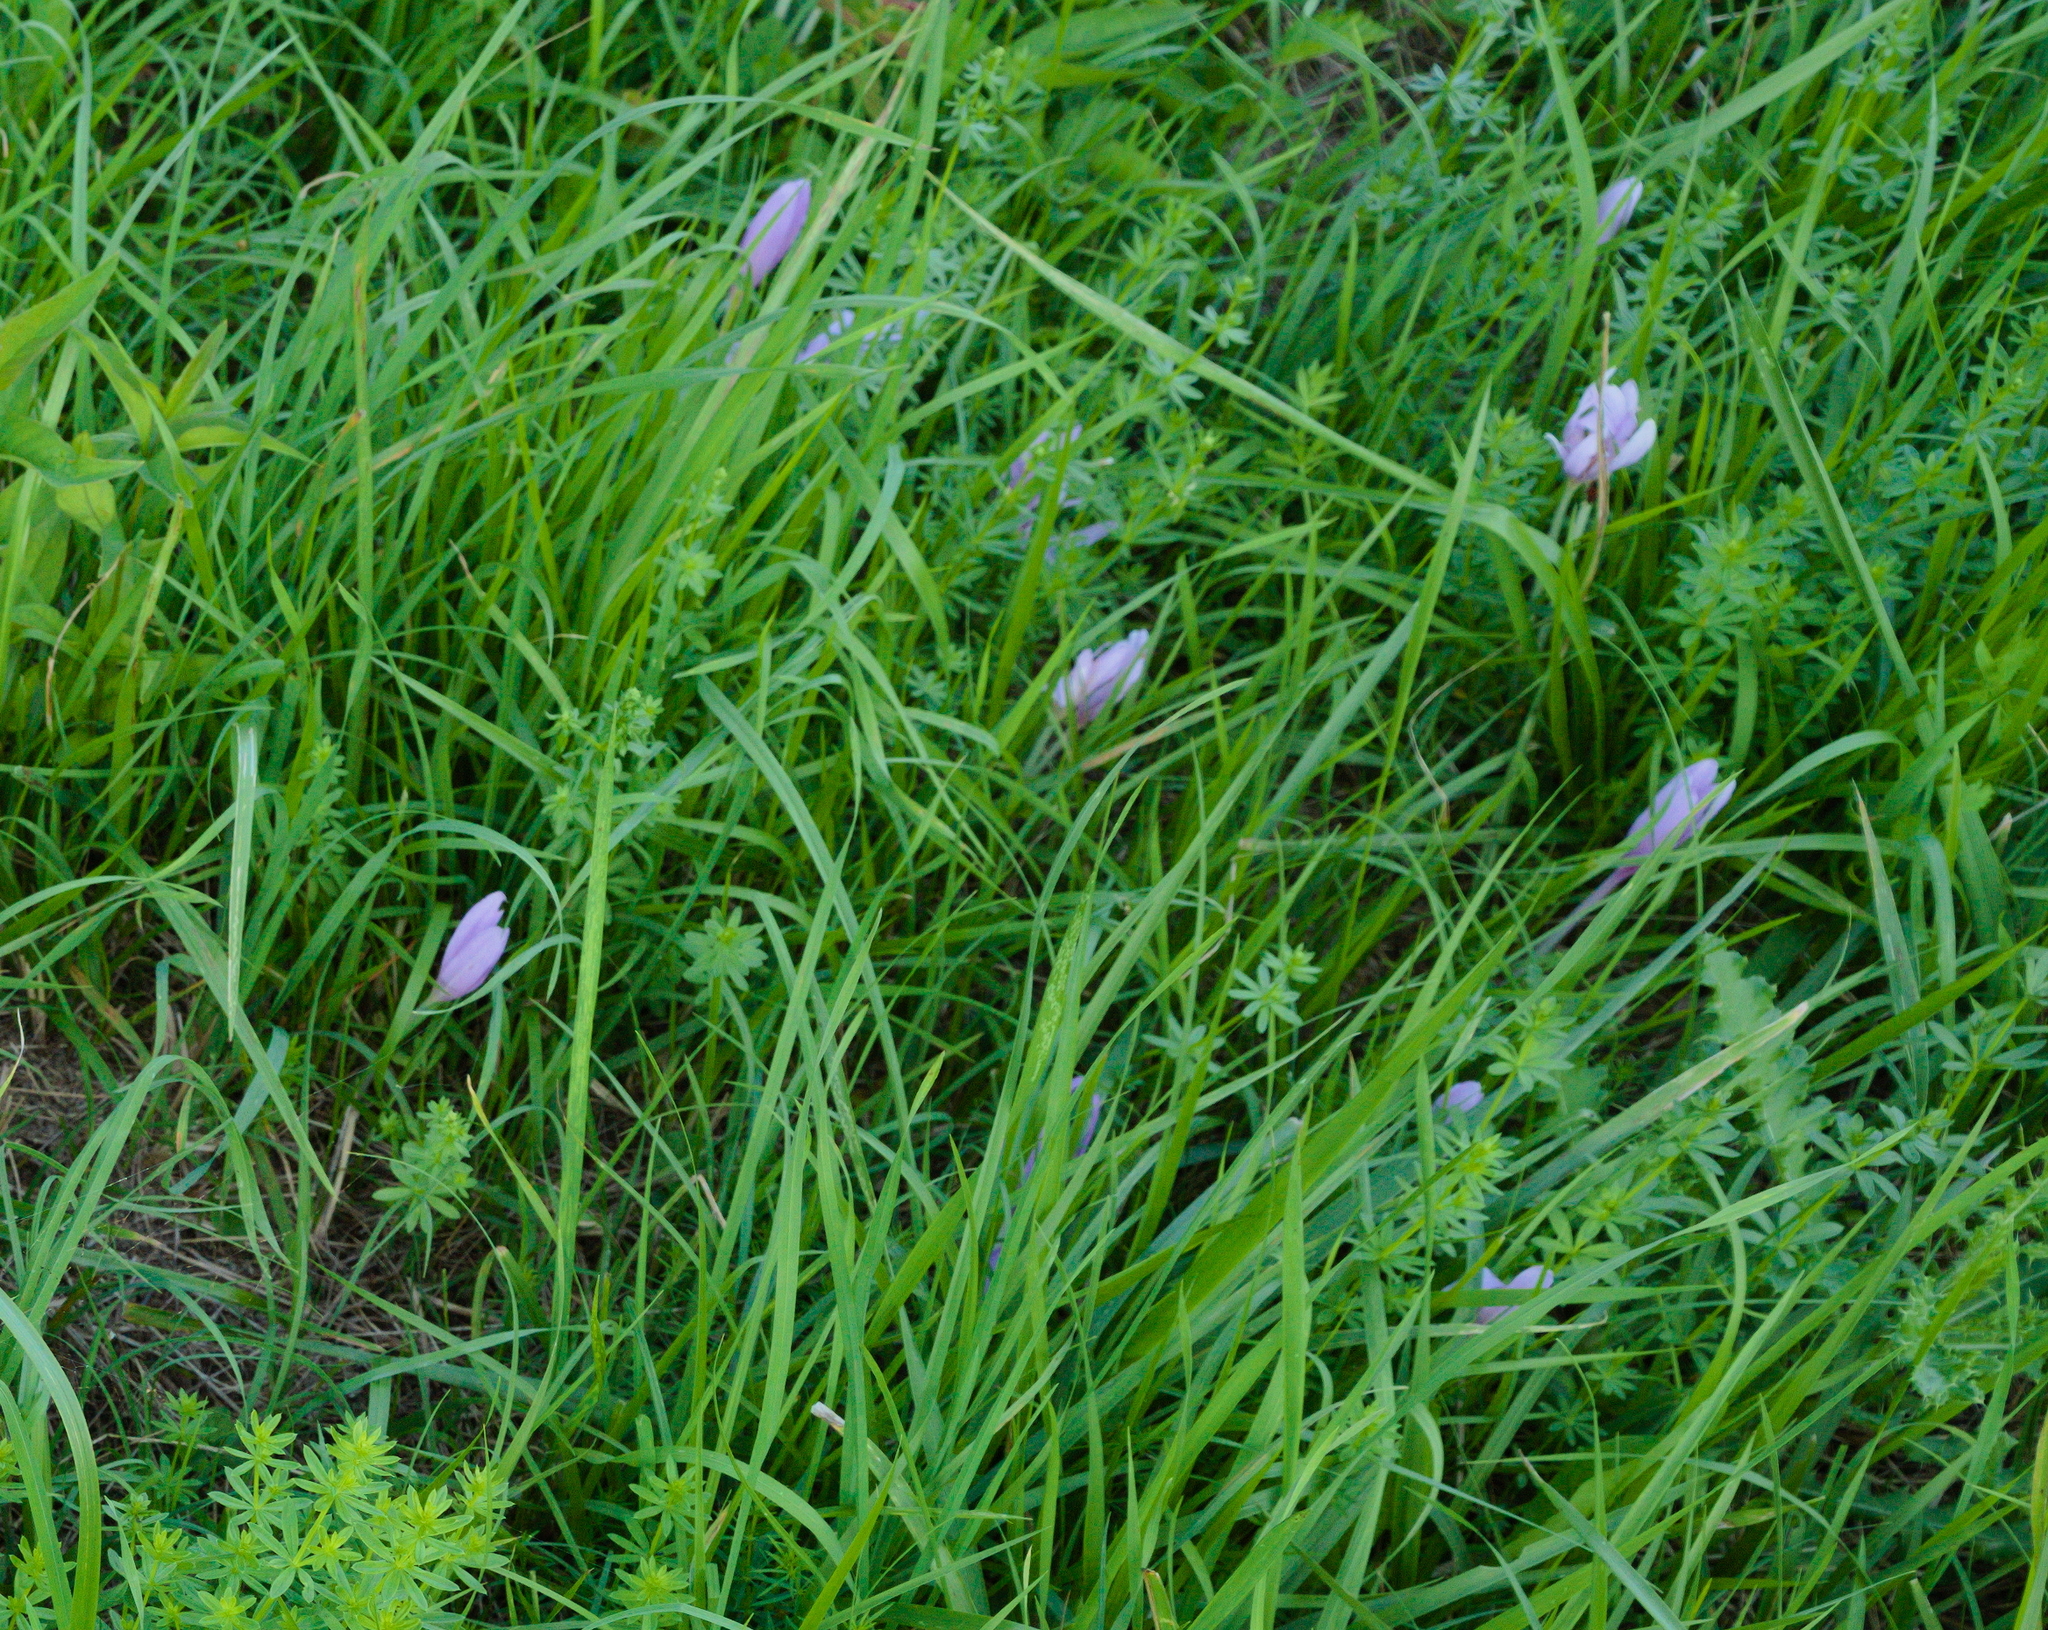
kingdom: Plantae
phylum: Tracheophyta
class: Liliopsida
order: Liliales
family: Colchicaceae
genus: Colchicum
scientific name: Colchicum autumnale
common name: Autumn crocus
